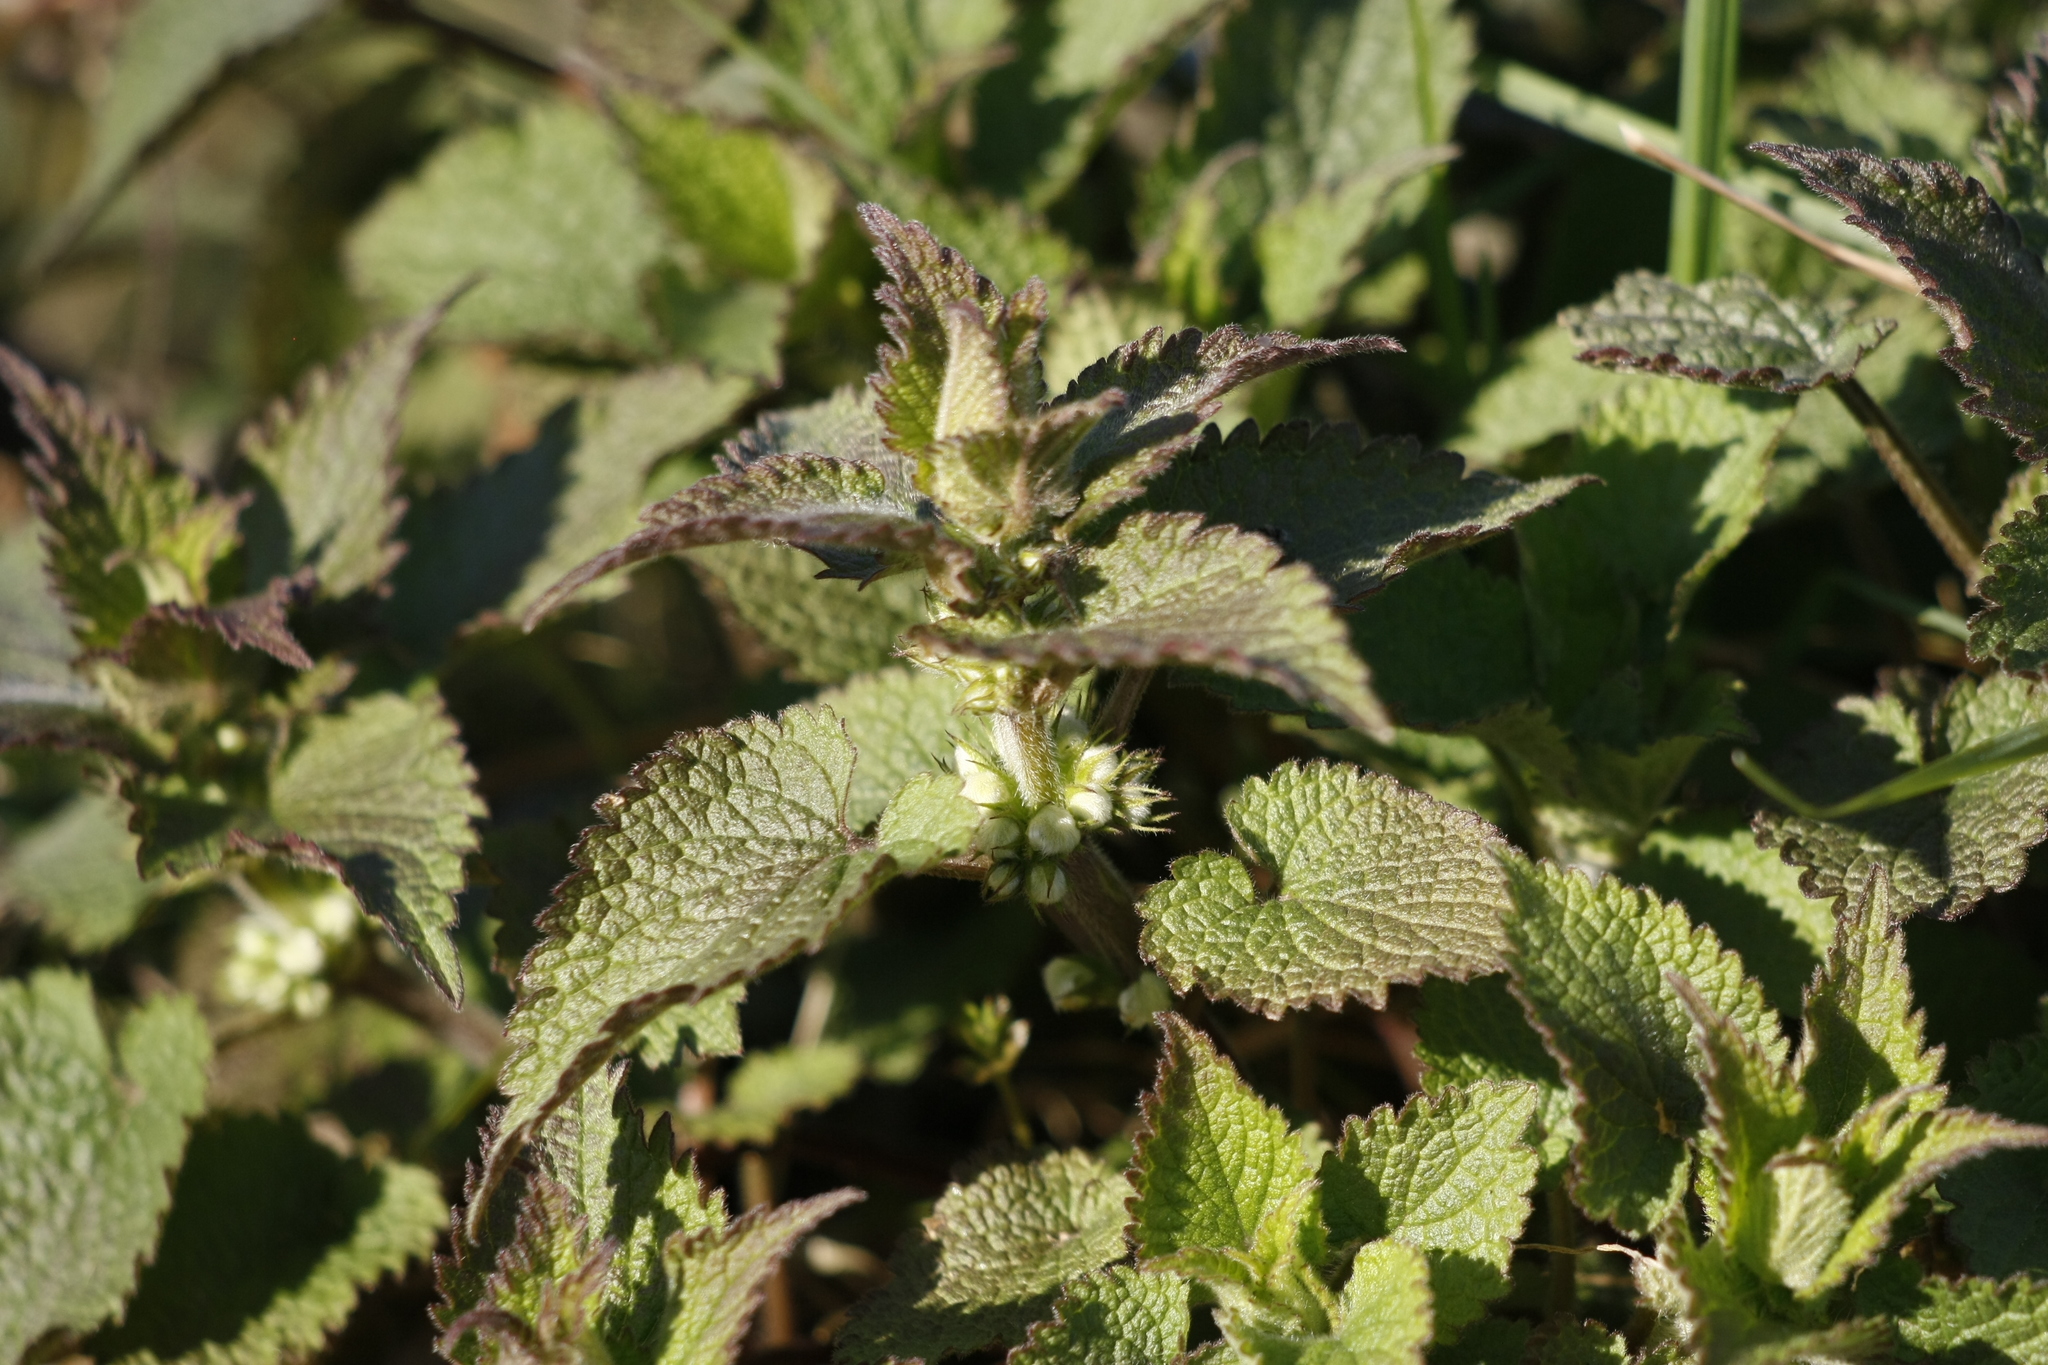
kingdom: Plantae
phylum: Tracheophyta
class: Magnoliopsida
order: Lamiales
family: Lamiaceae
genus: Lamium
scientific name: Lamium album
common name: White dead-nettle
